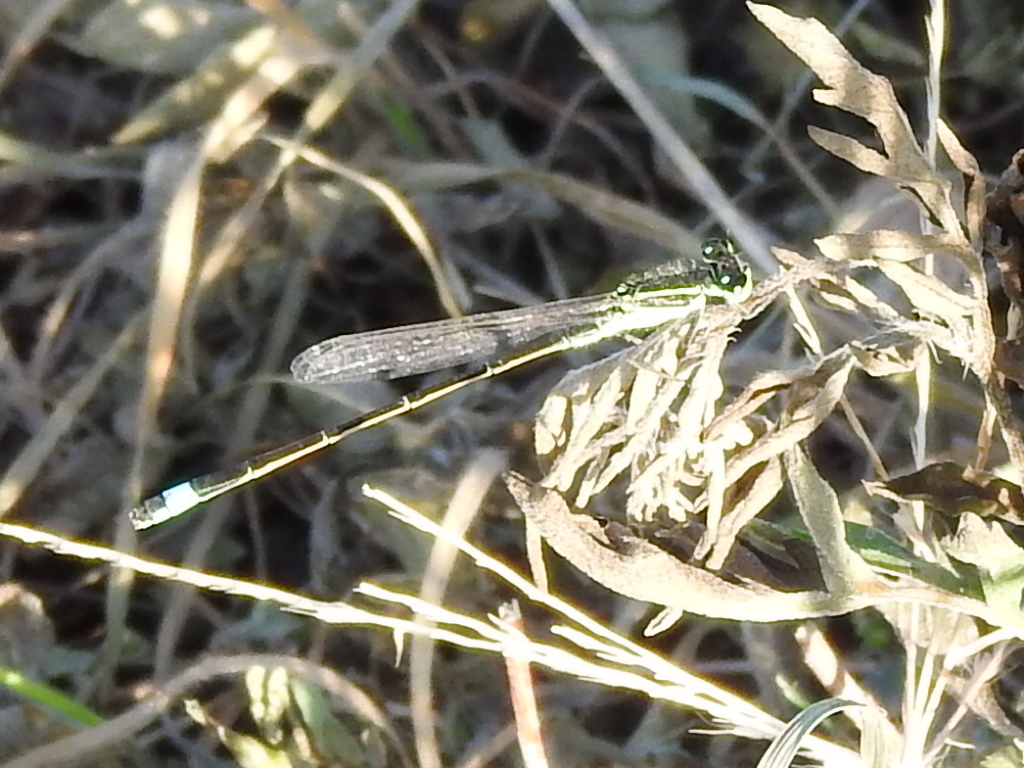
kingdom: Animalia
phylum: Arthropoda
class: Insecta
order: Odonata
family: Coenagrionidae
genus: Ischnura
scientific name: Ischnura ramburii
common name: Rambur's forktail
